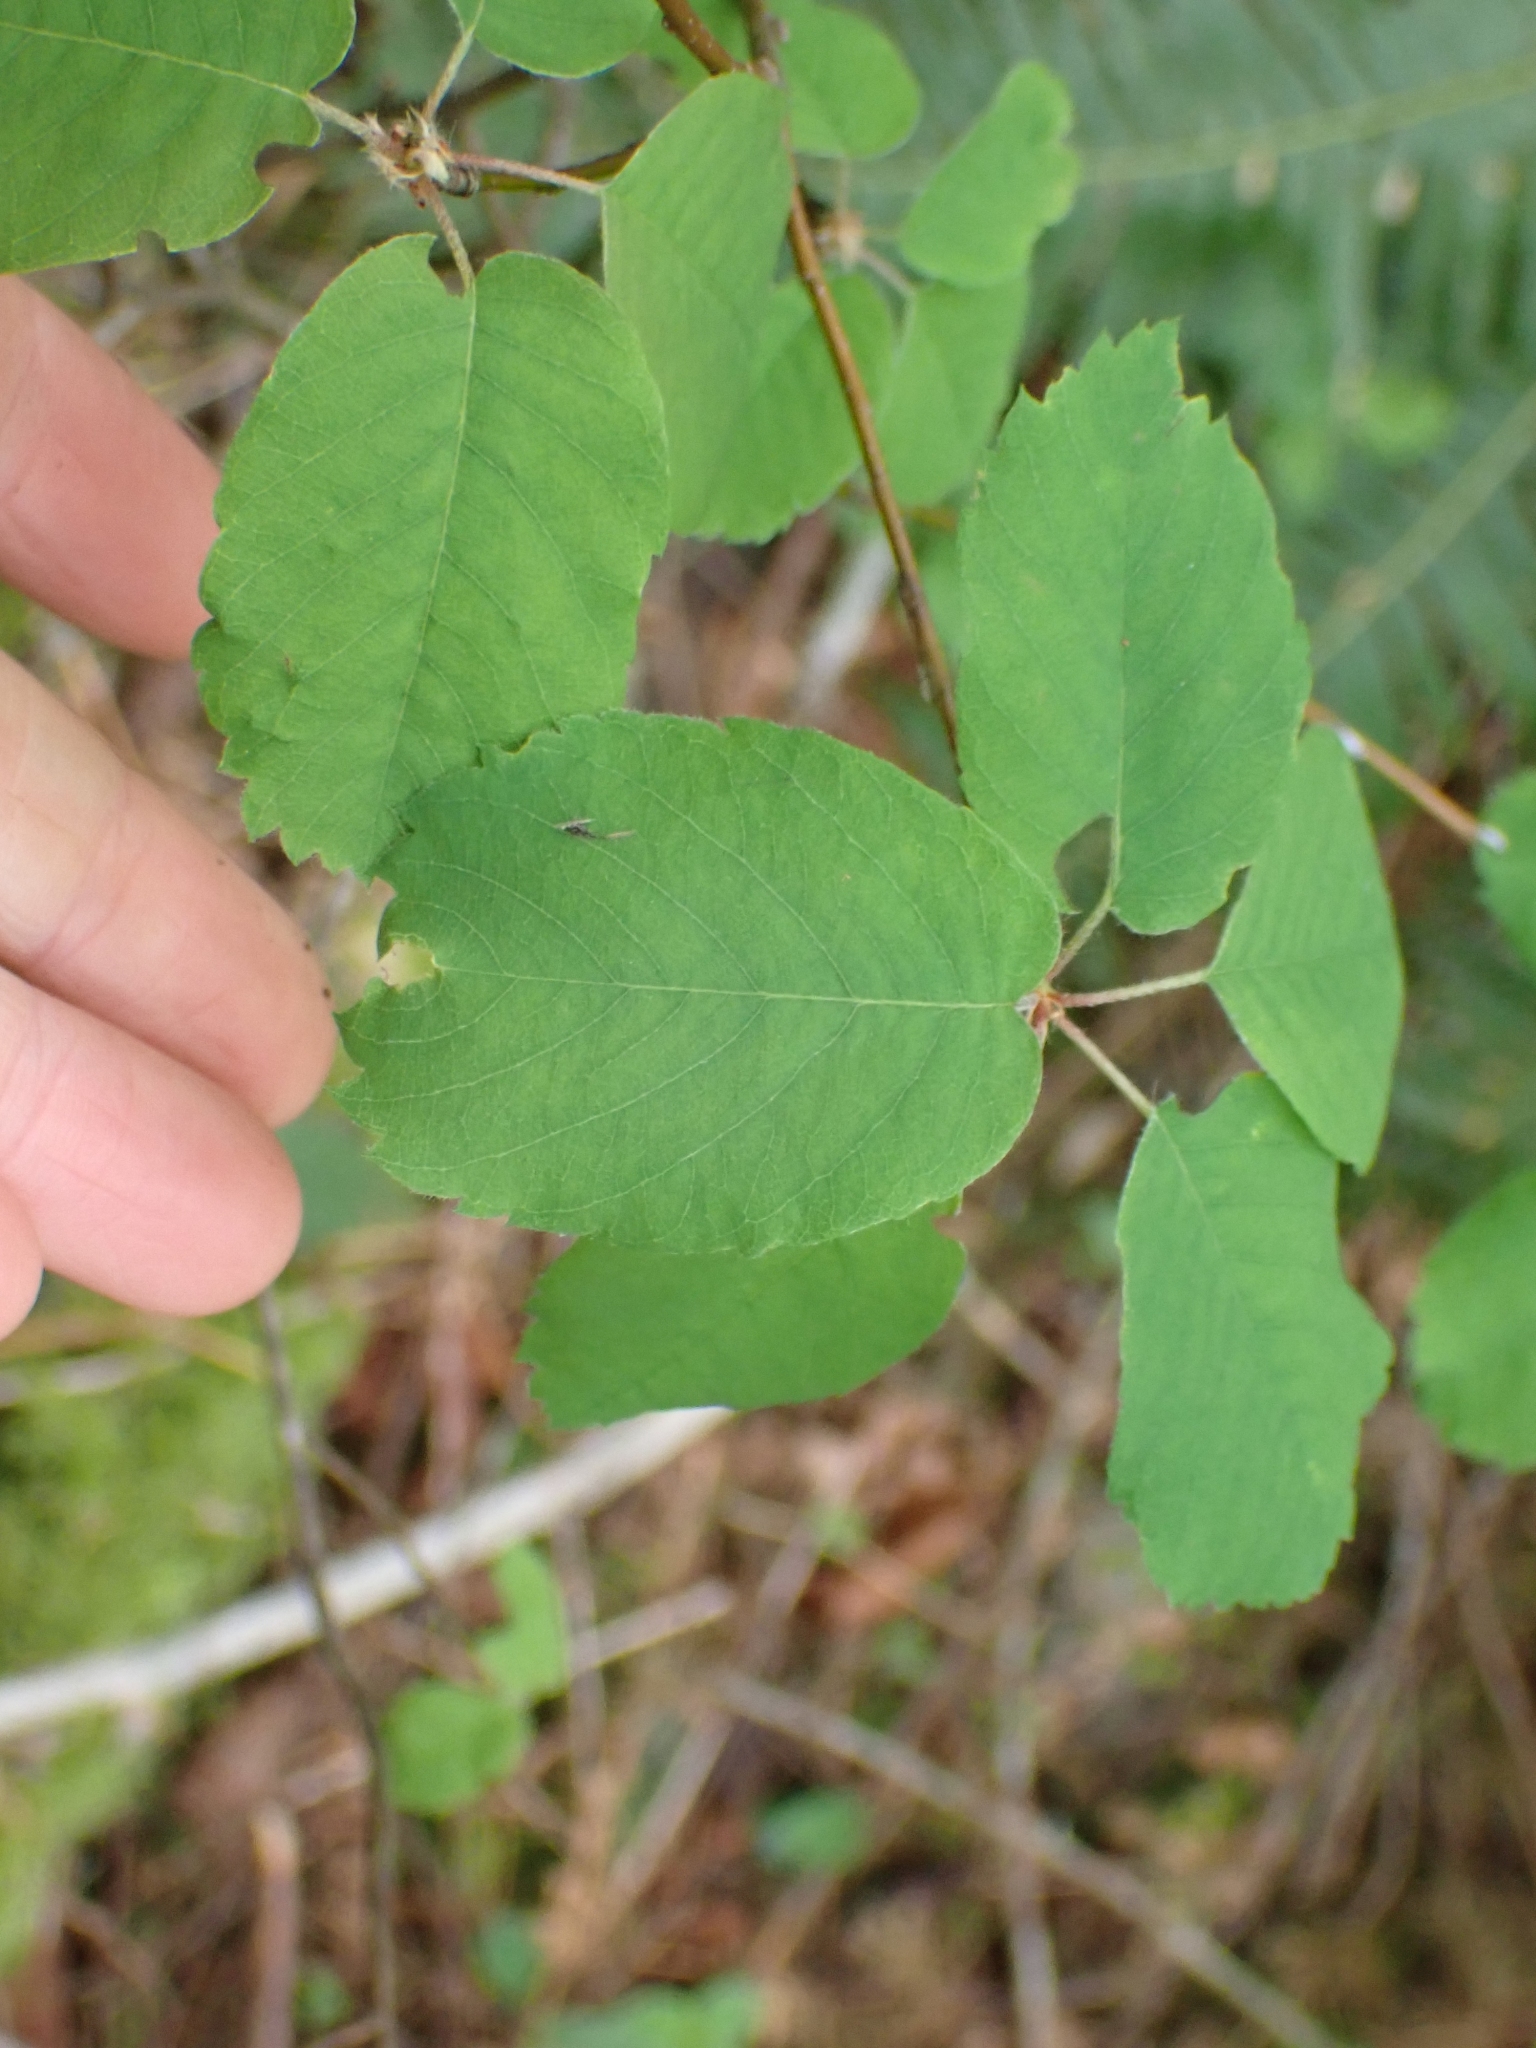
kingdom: Plantae
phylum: Tracheophyta
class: Magnoliopsida
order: Rosales
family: Rosaceae
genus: Amelanchier
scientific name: Amelanchier alnifolia
